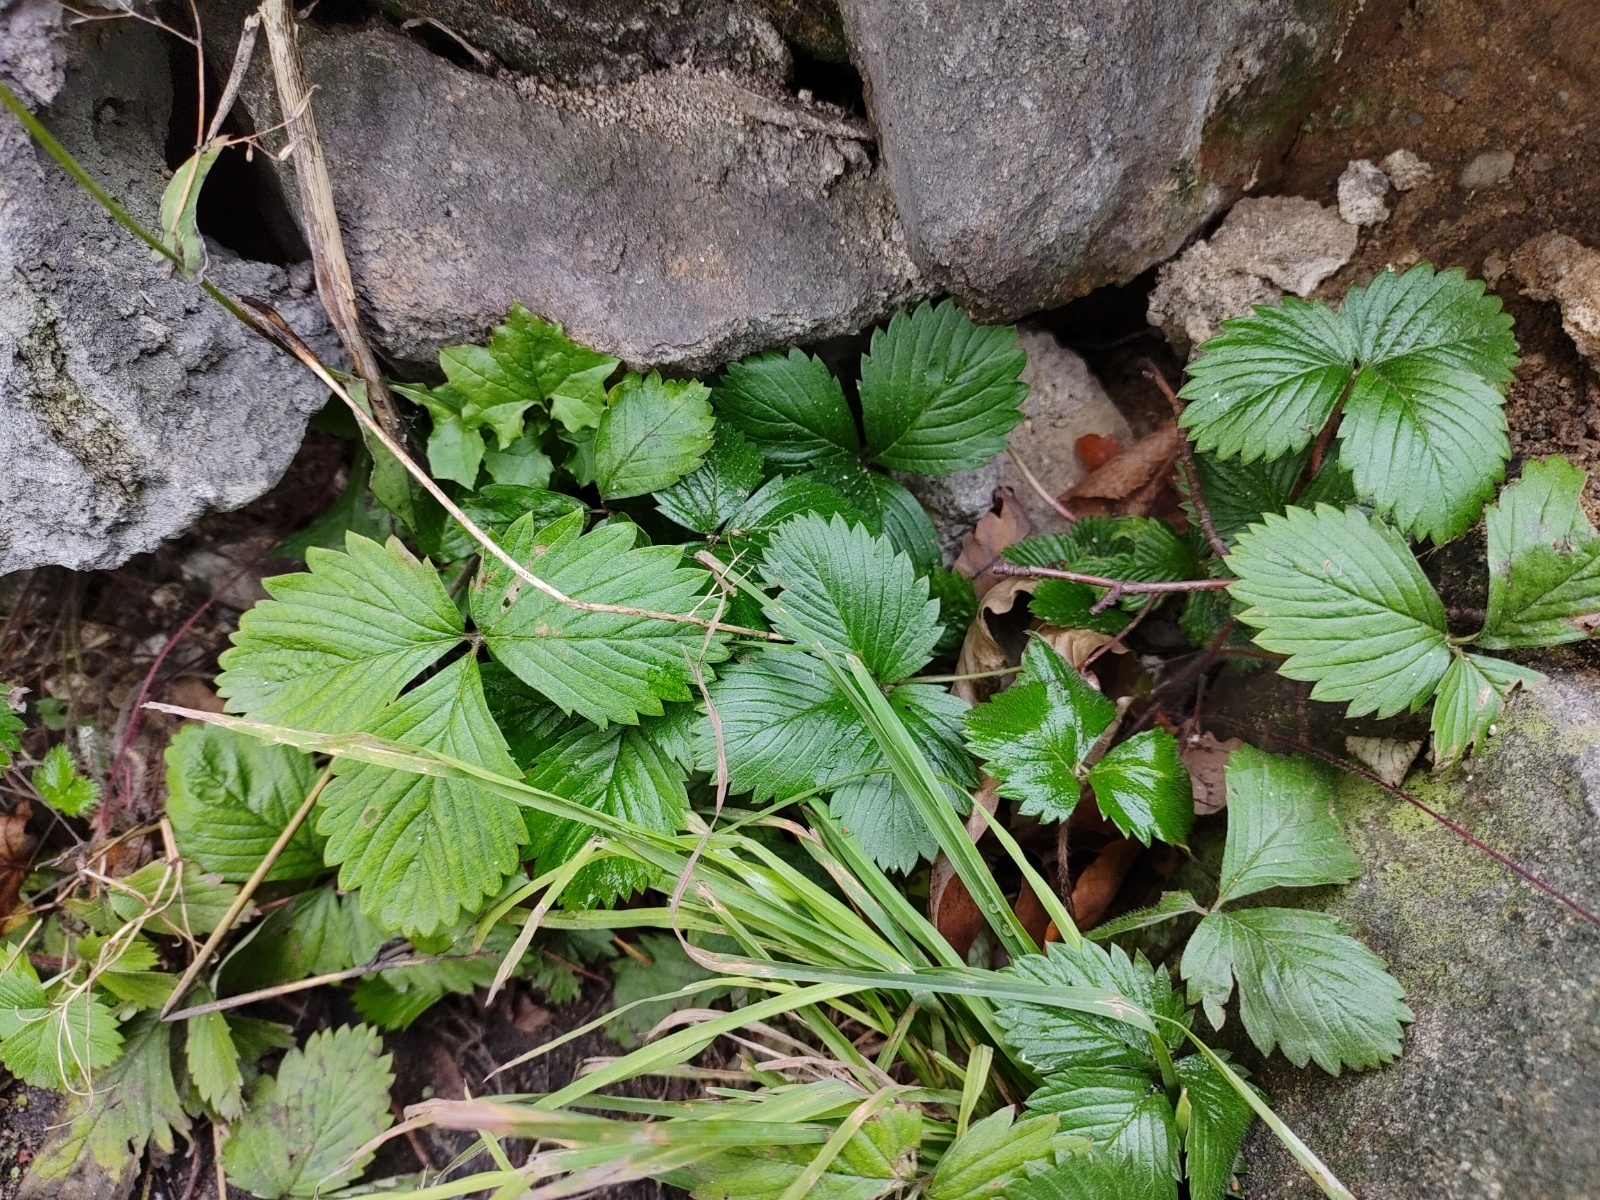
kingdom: Plantae
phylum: Tracheophyta
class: Magnoliopsida
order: Rosales
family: Rosaceae
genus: Fragaria
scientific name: Fragaria vesca
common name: Wild strawberry
